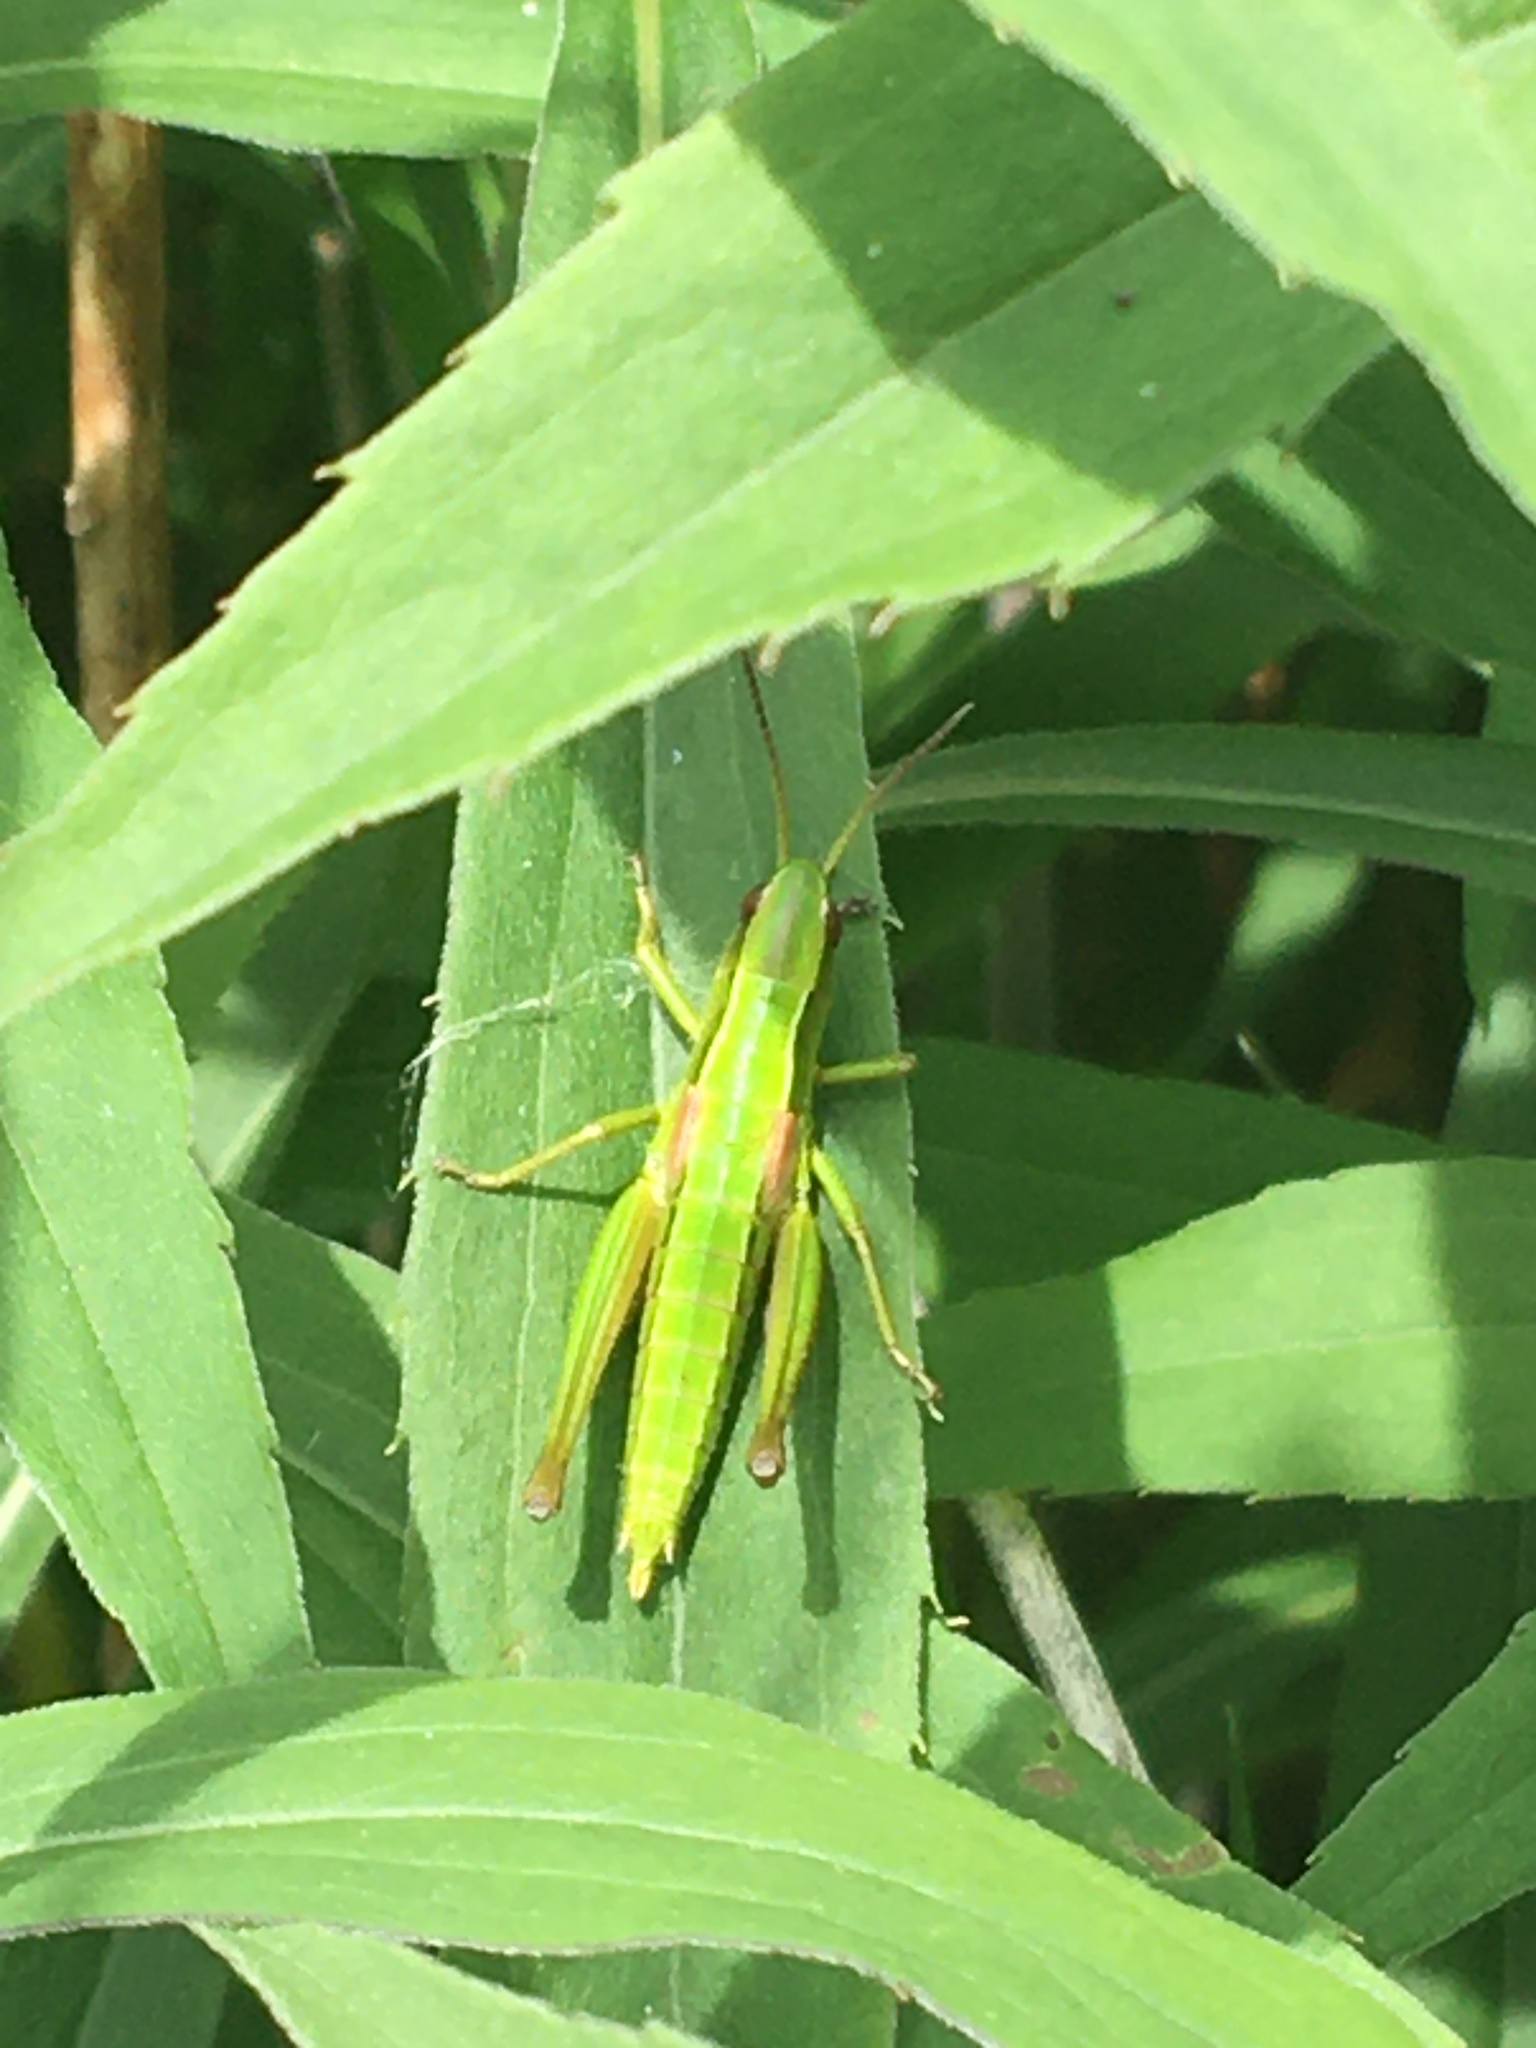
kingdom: Animalia
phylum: Arthropoda
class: Insecta
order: Orthoptera
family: Acrididae
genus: Euthystira
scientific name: Euthystira brachyptera
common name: Small gold grasshopper
